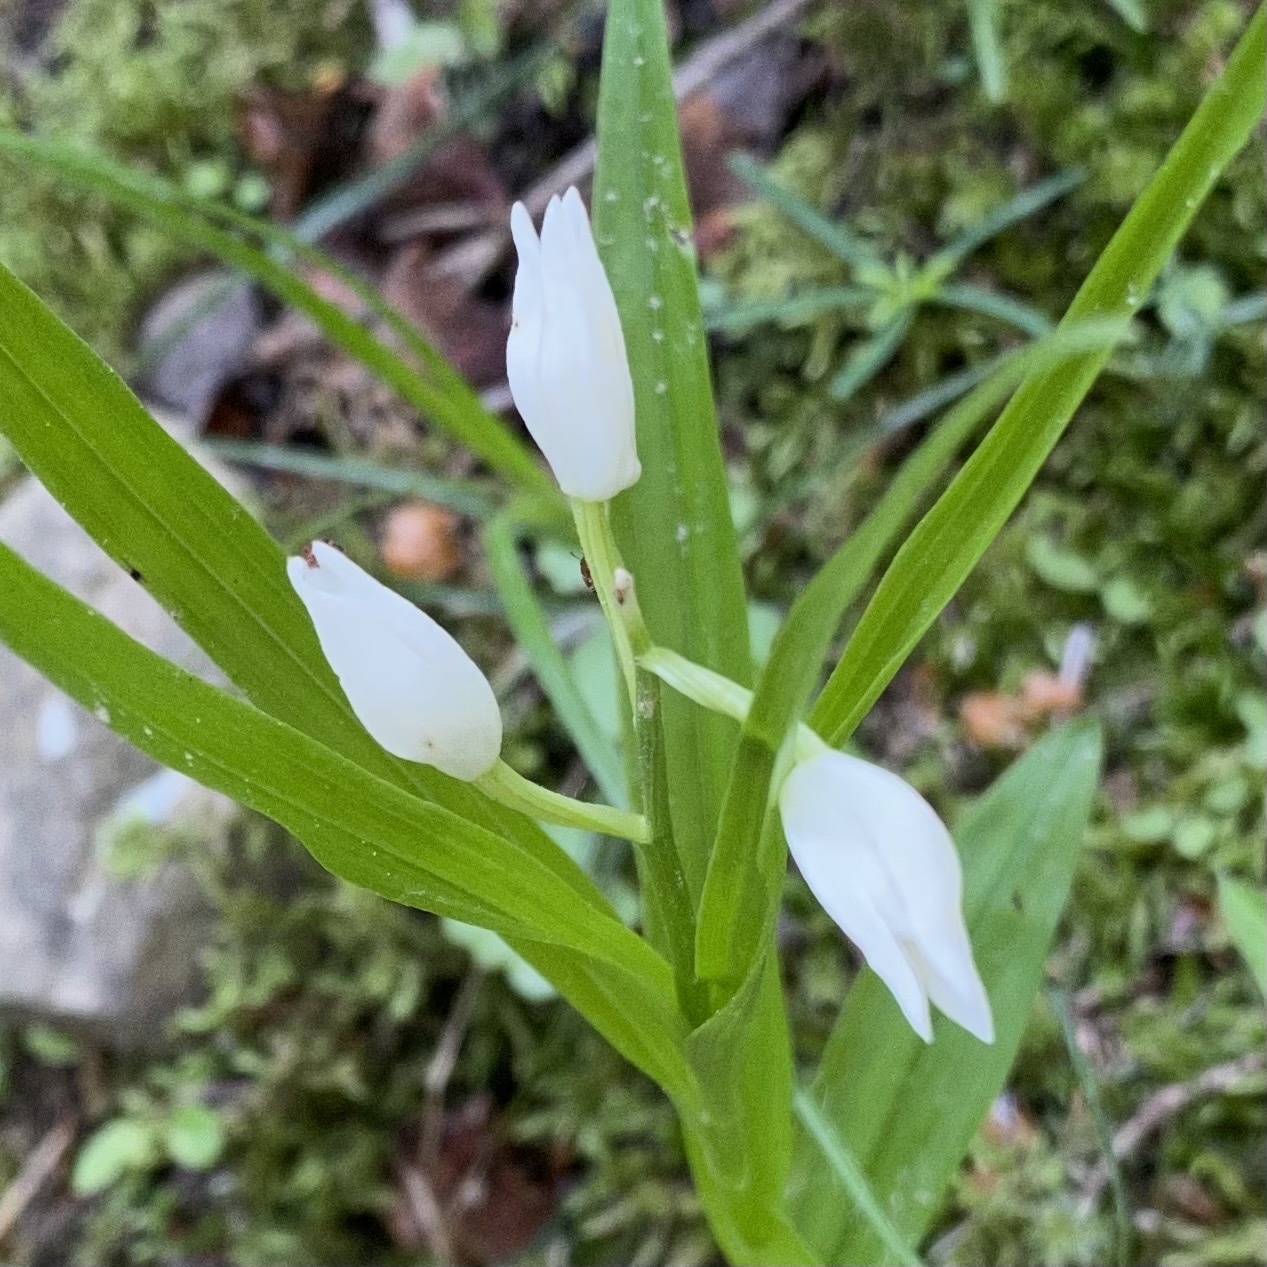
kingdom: Plantae
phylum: Tracheophyta
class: Liliopsida
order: Asparagales
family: Orchidaceae
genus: Cephalanthera
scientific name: Cephalanthera longifolia
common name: Narrow-leaved helleborine
